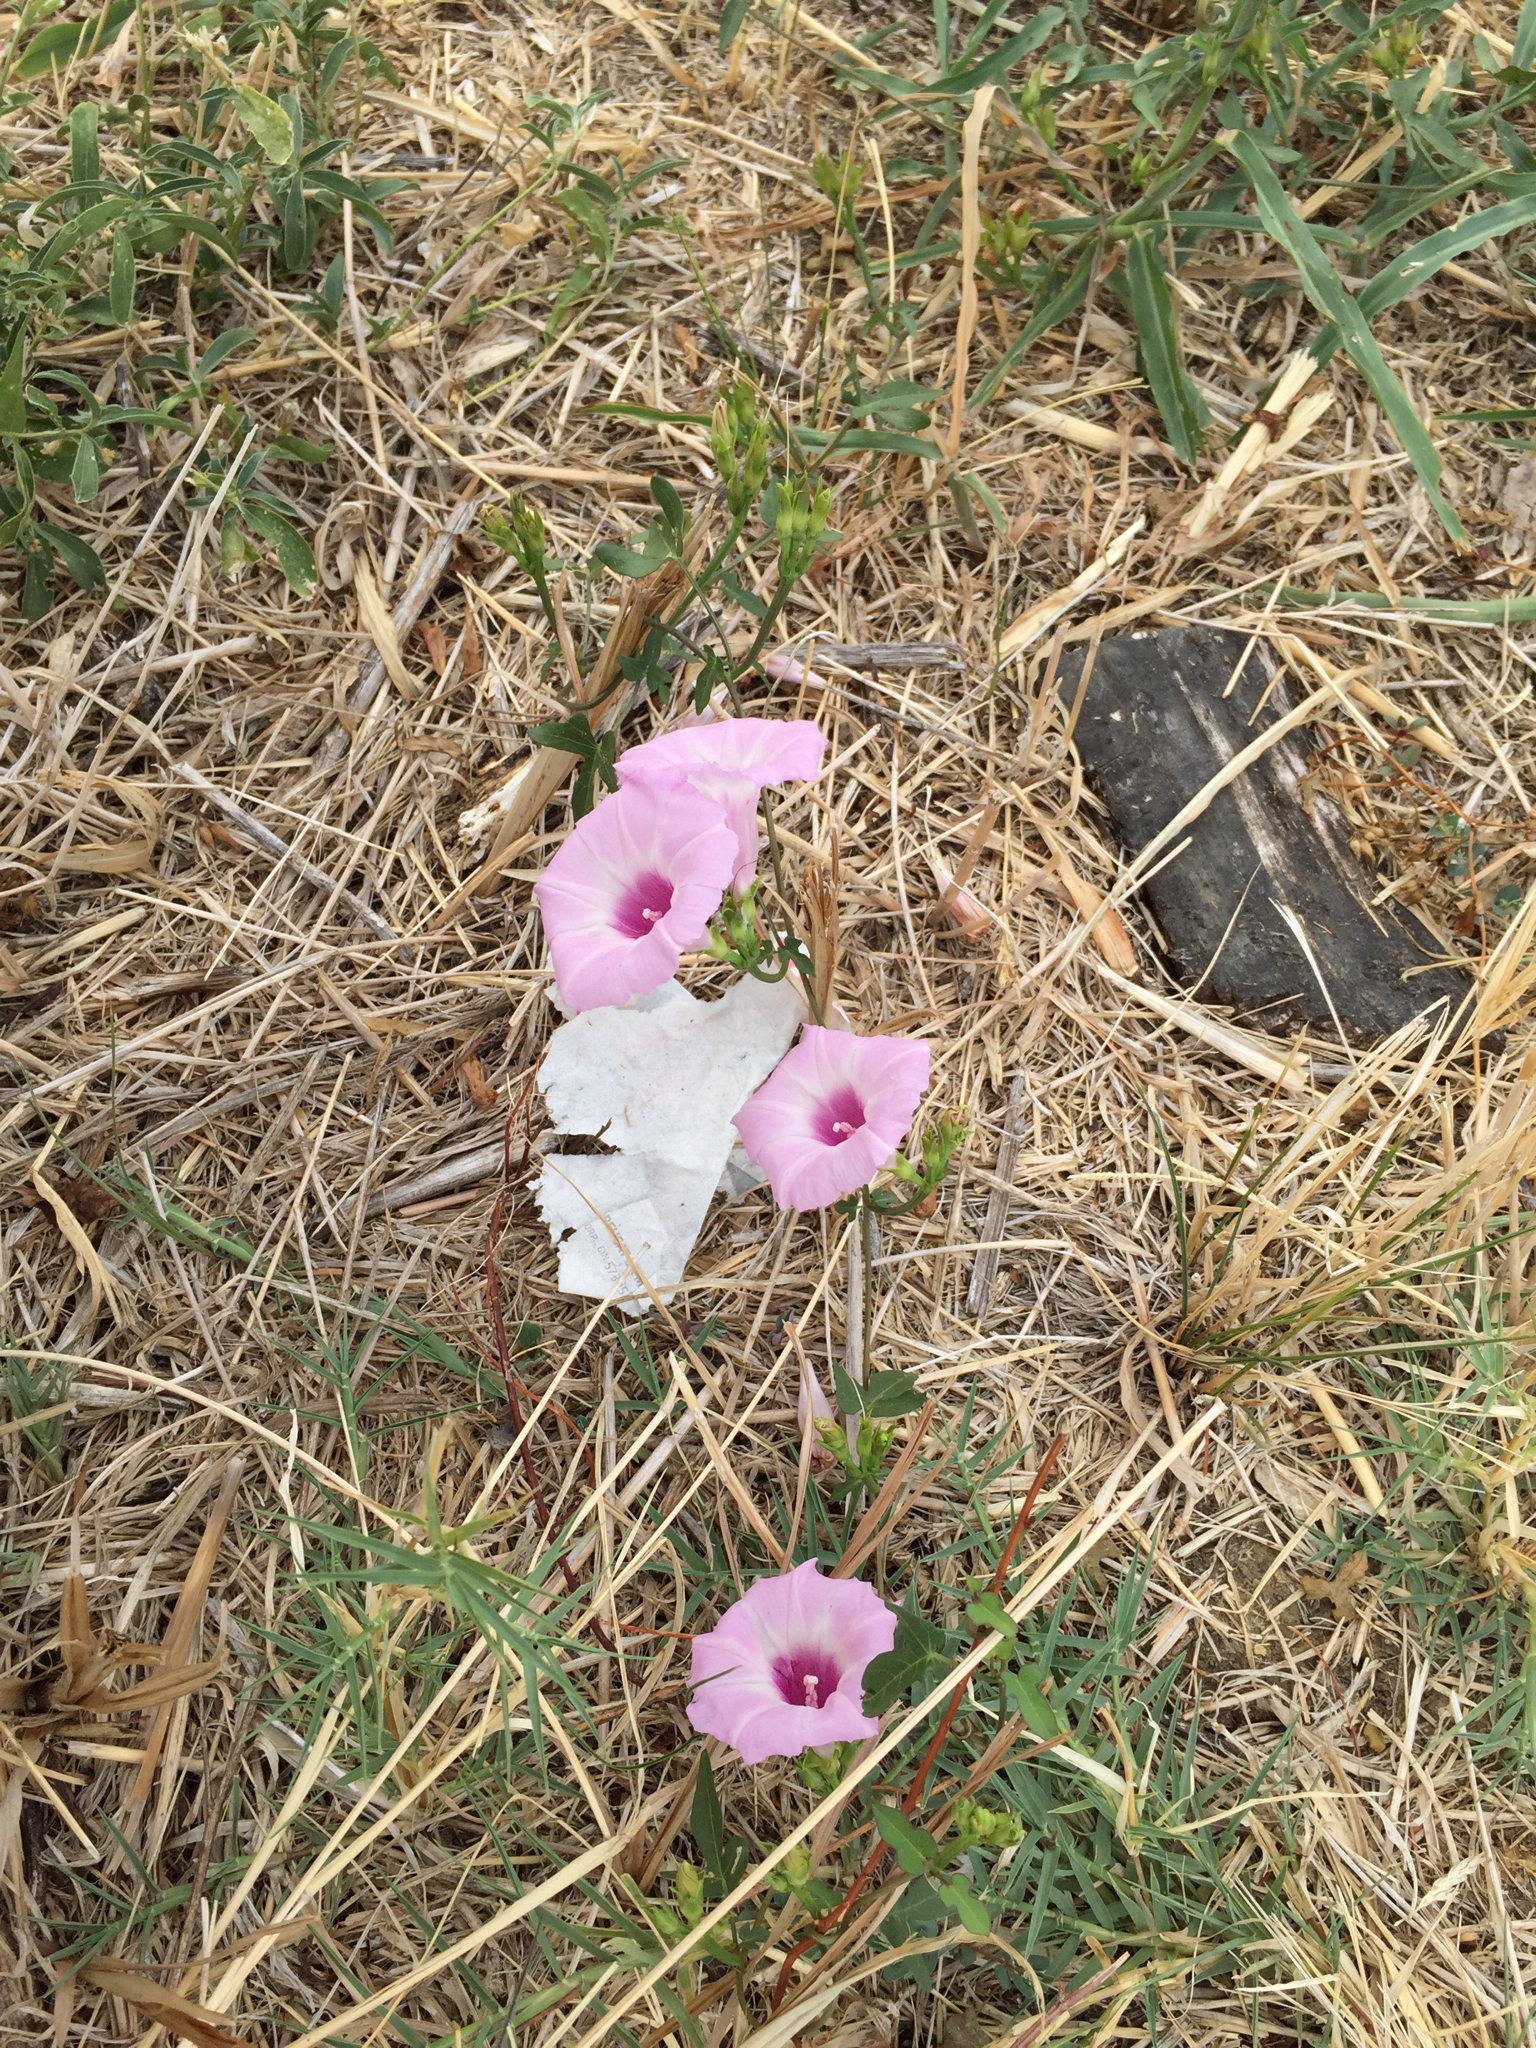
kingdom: Plantae
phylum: Tracheophyta
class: Magnoliopsida
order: Solanales
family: Convolvulaceae
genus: Ipomoea
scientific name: Ipomoea cordatotriloba
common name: Cotton morning glory
